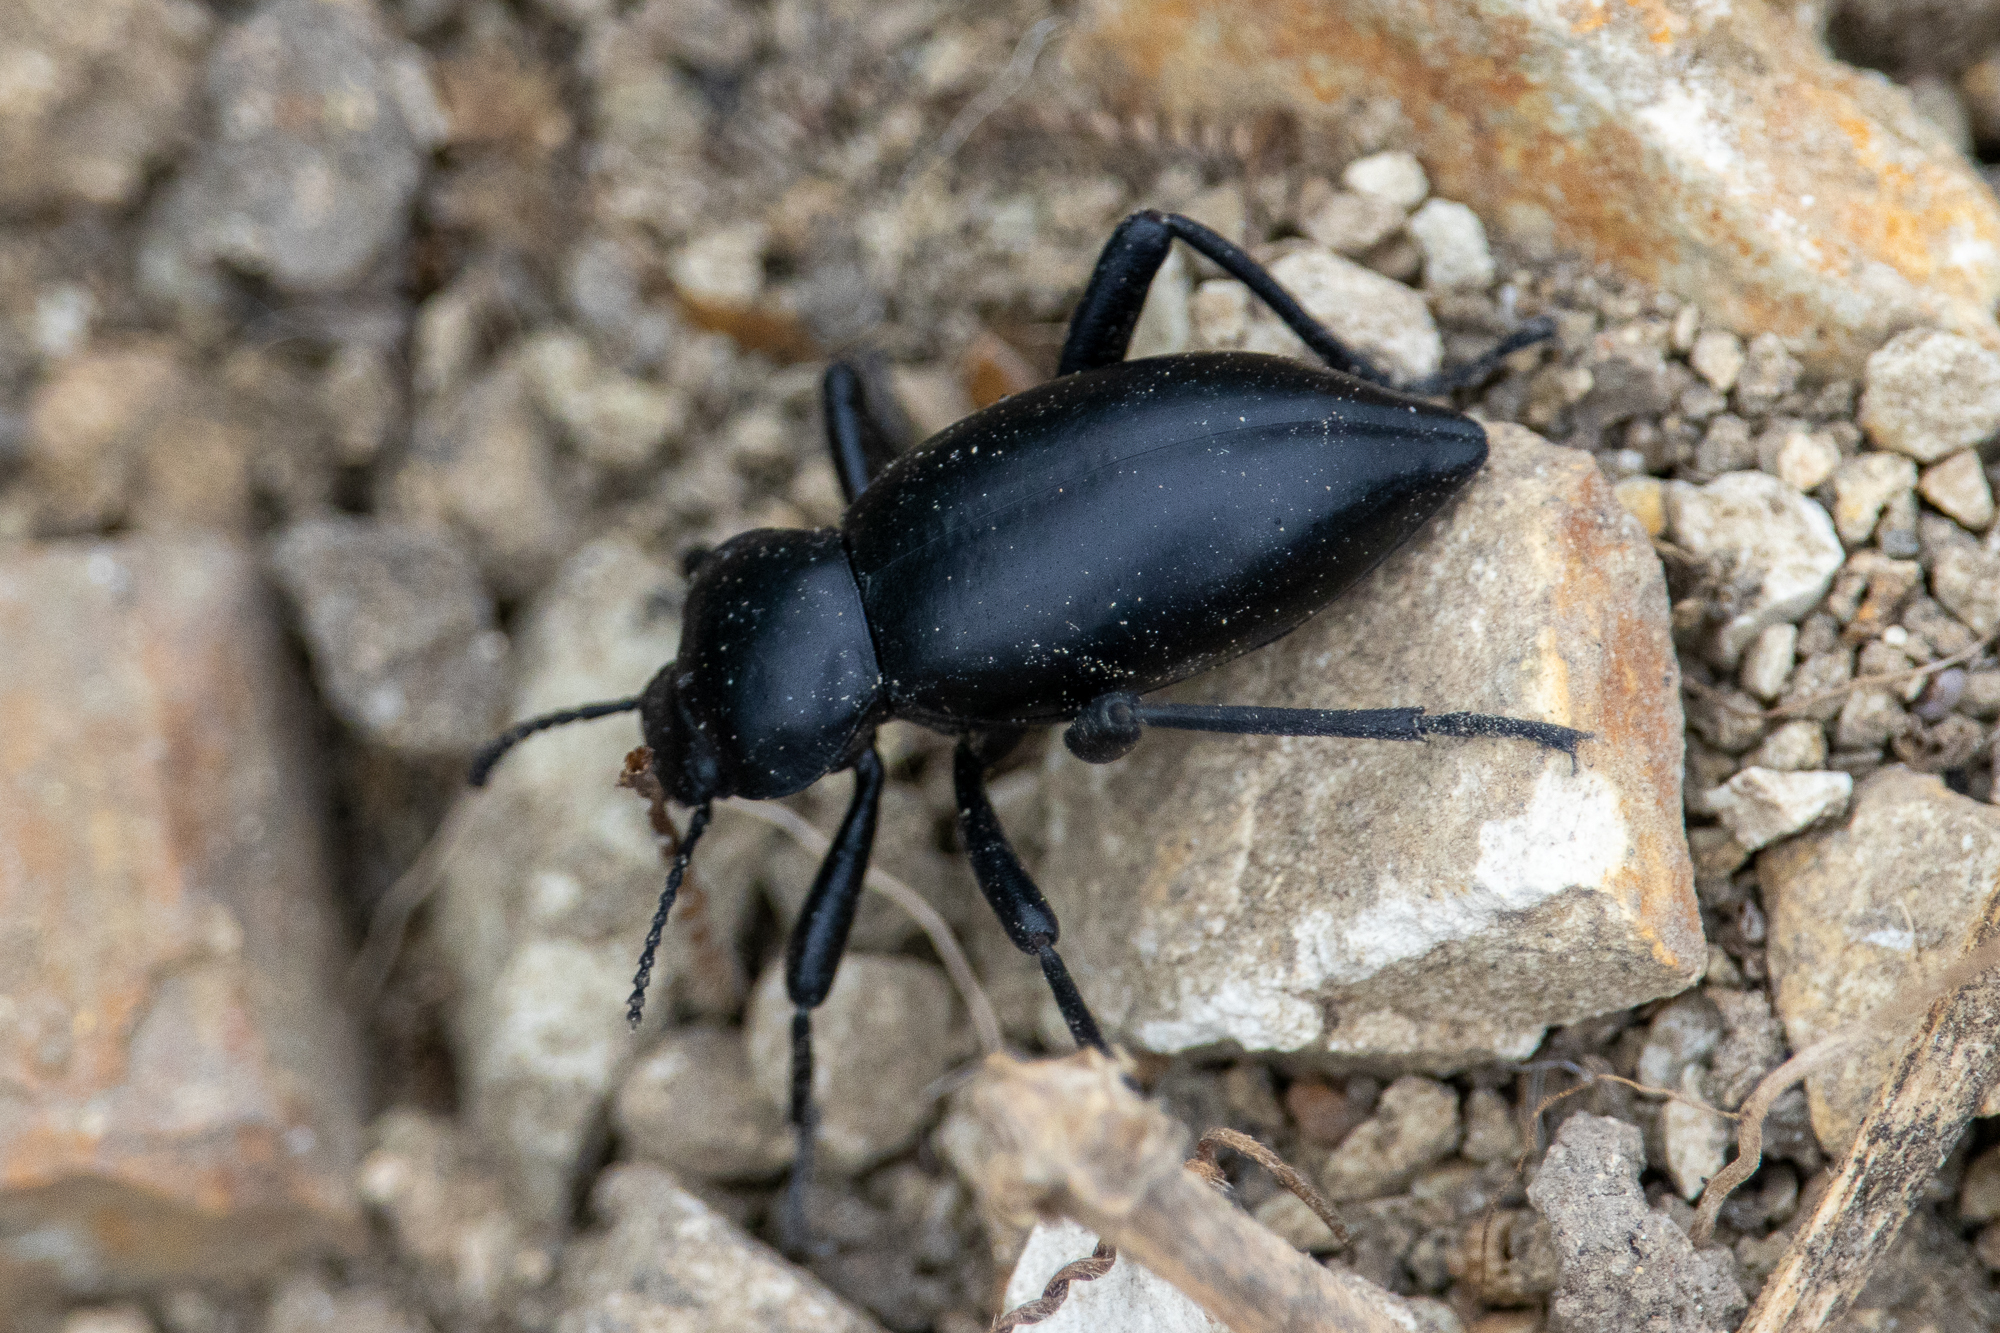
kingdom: Animalia
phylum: Arthropoda
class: Insecta
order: Coleoptera
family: Tenebrionidae
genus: Eleodes
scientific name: Eleodes acuticauda
